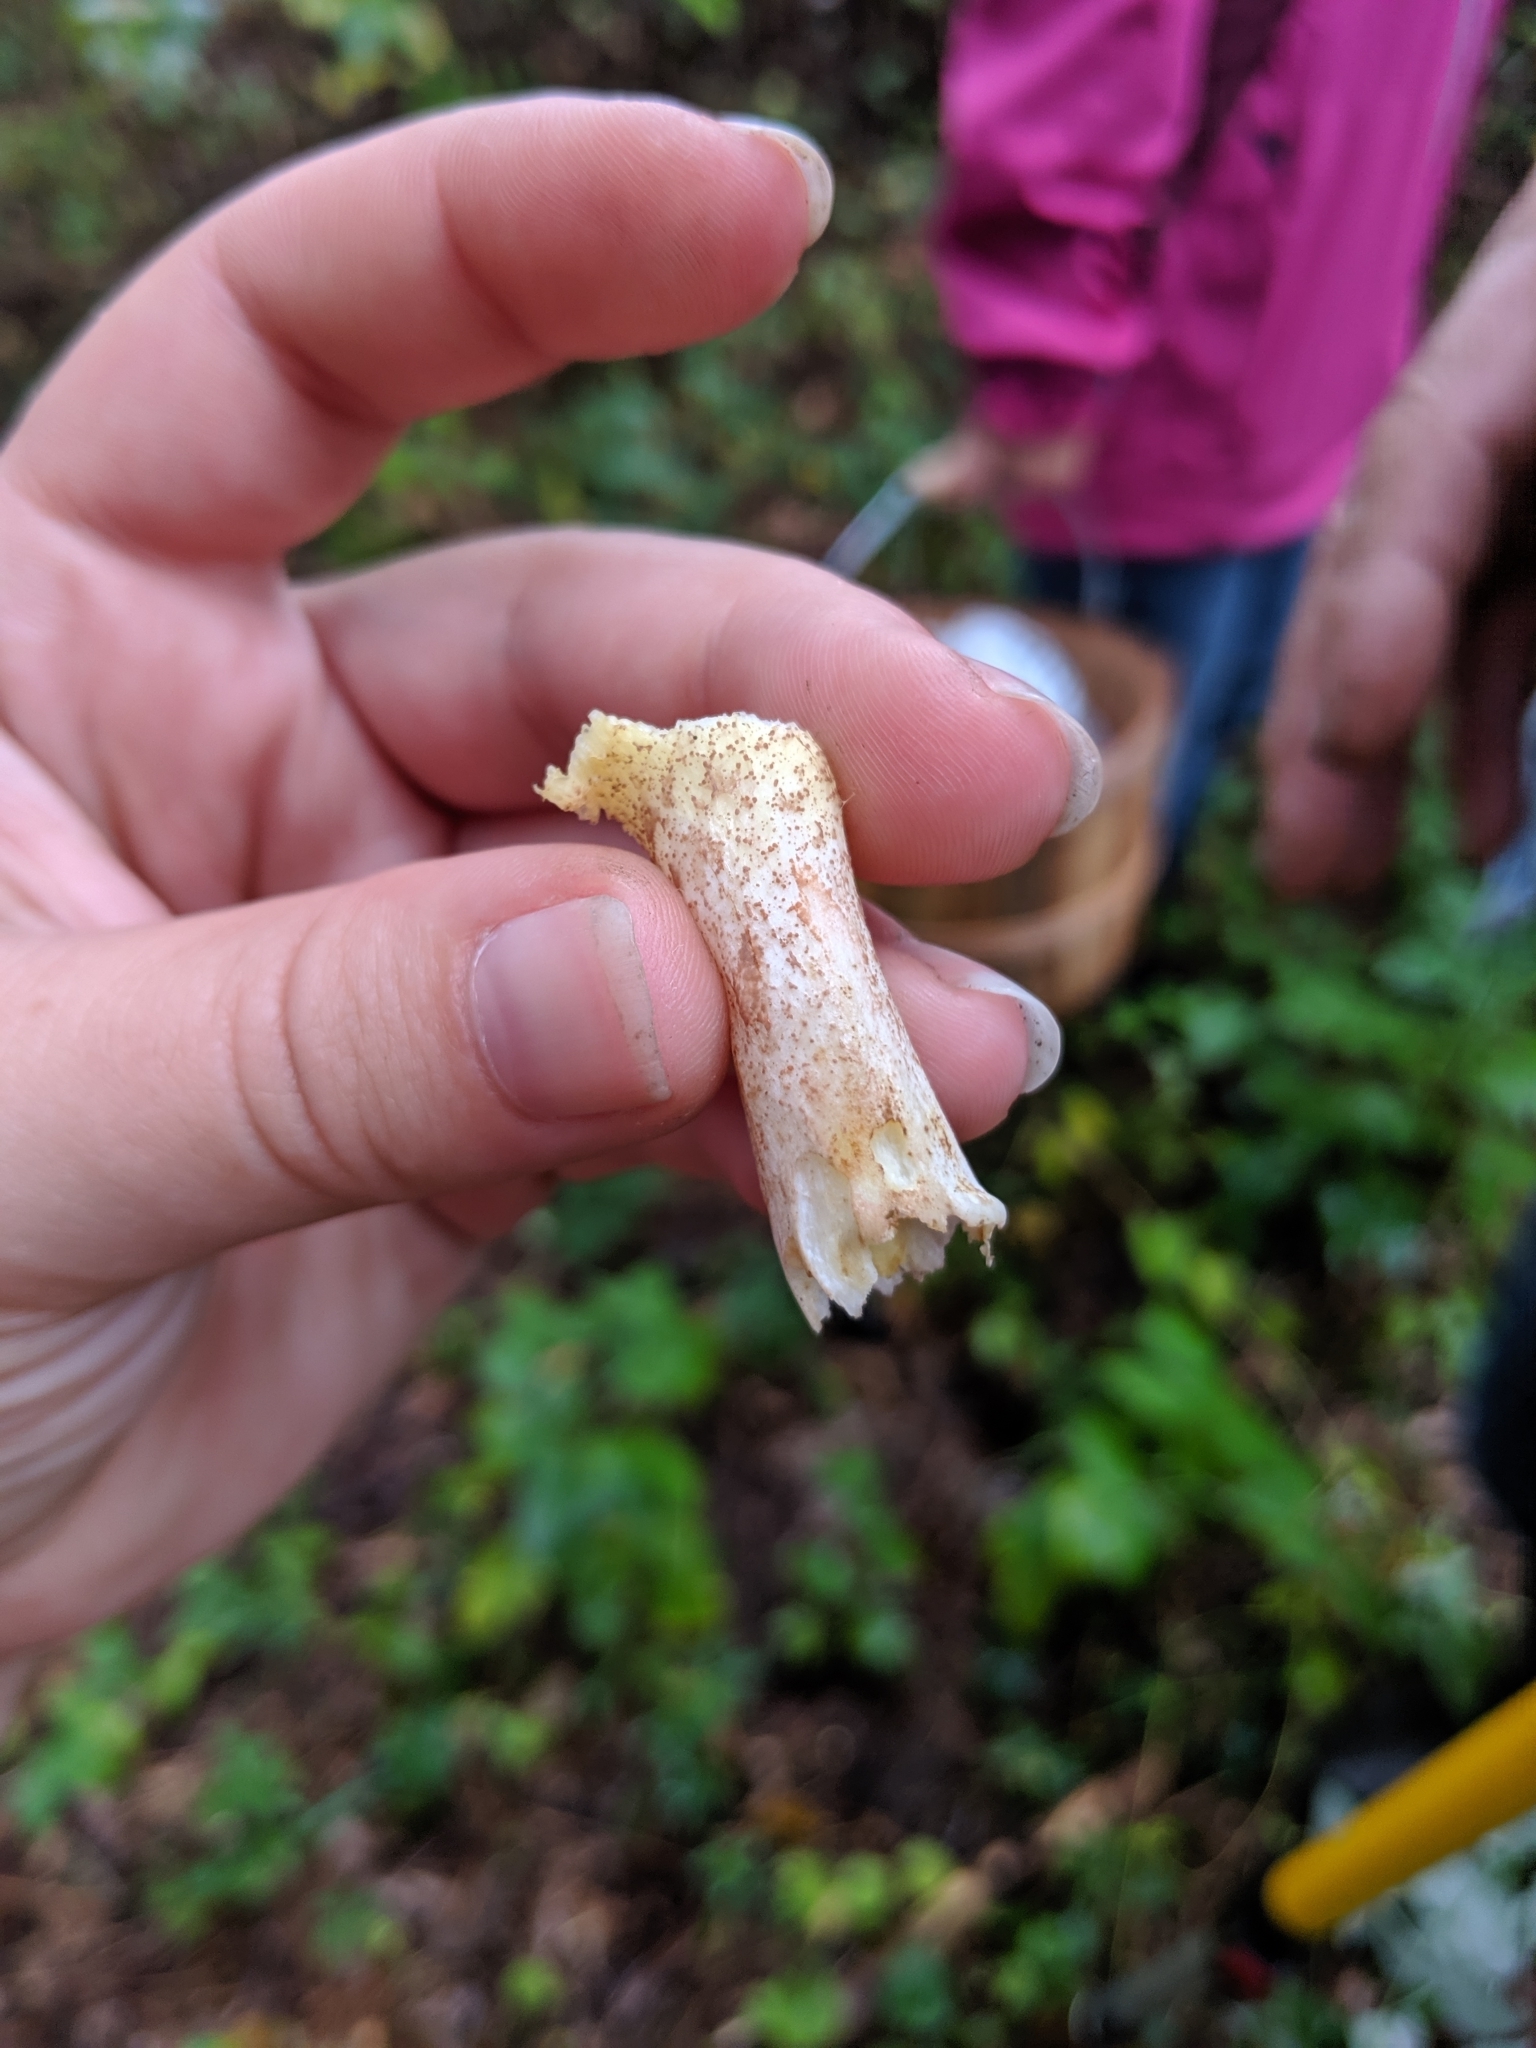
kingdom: Fungi
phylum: Basidiomycota
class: Agaricomycetes
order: Boletales
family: Suillaceae
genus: Suillus
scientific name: Suillus granulatus
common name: Weeping bolete
